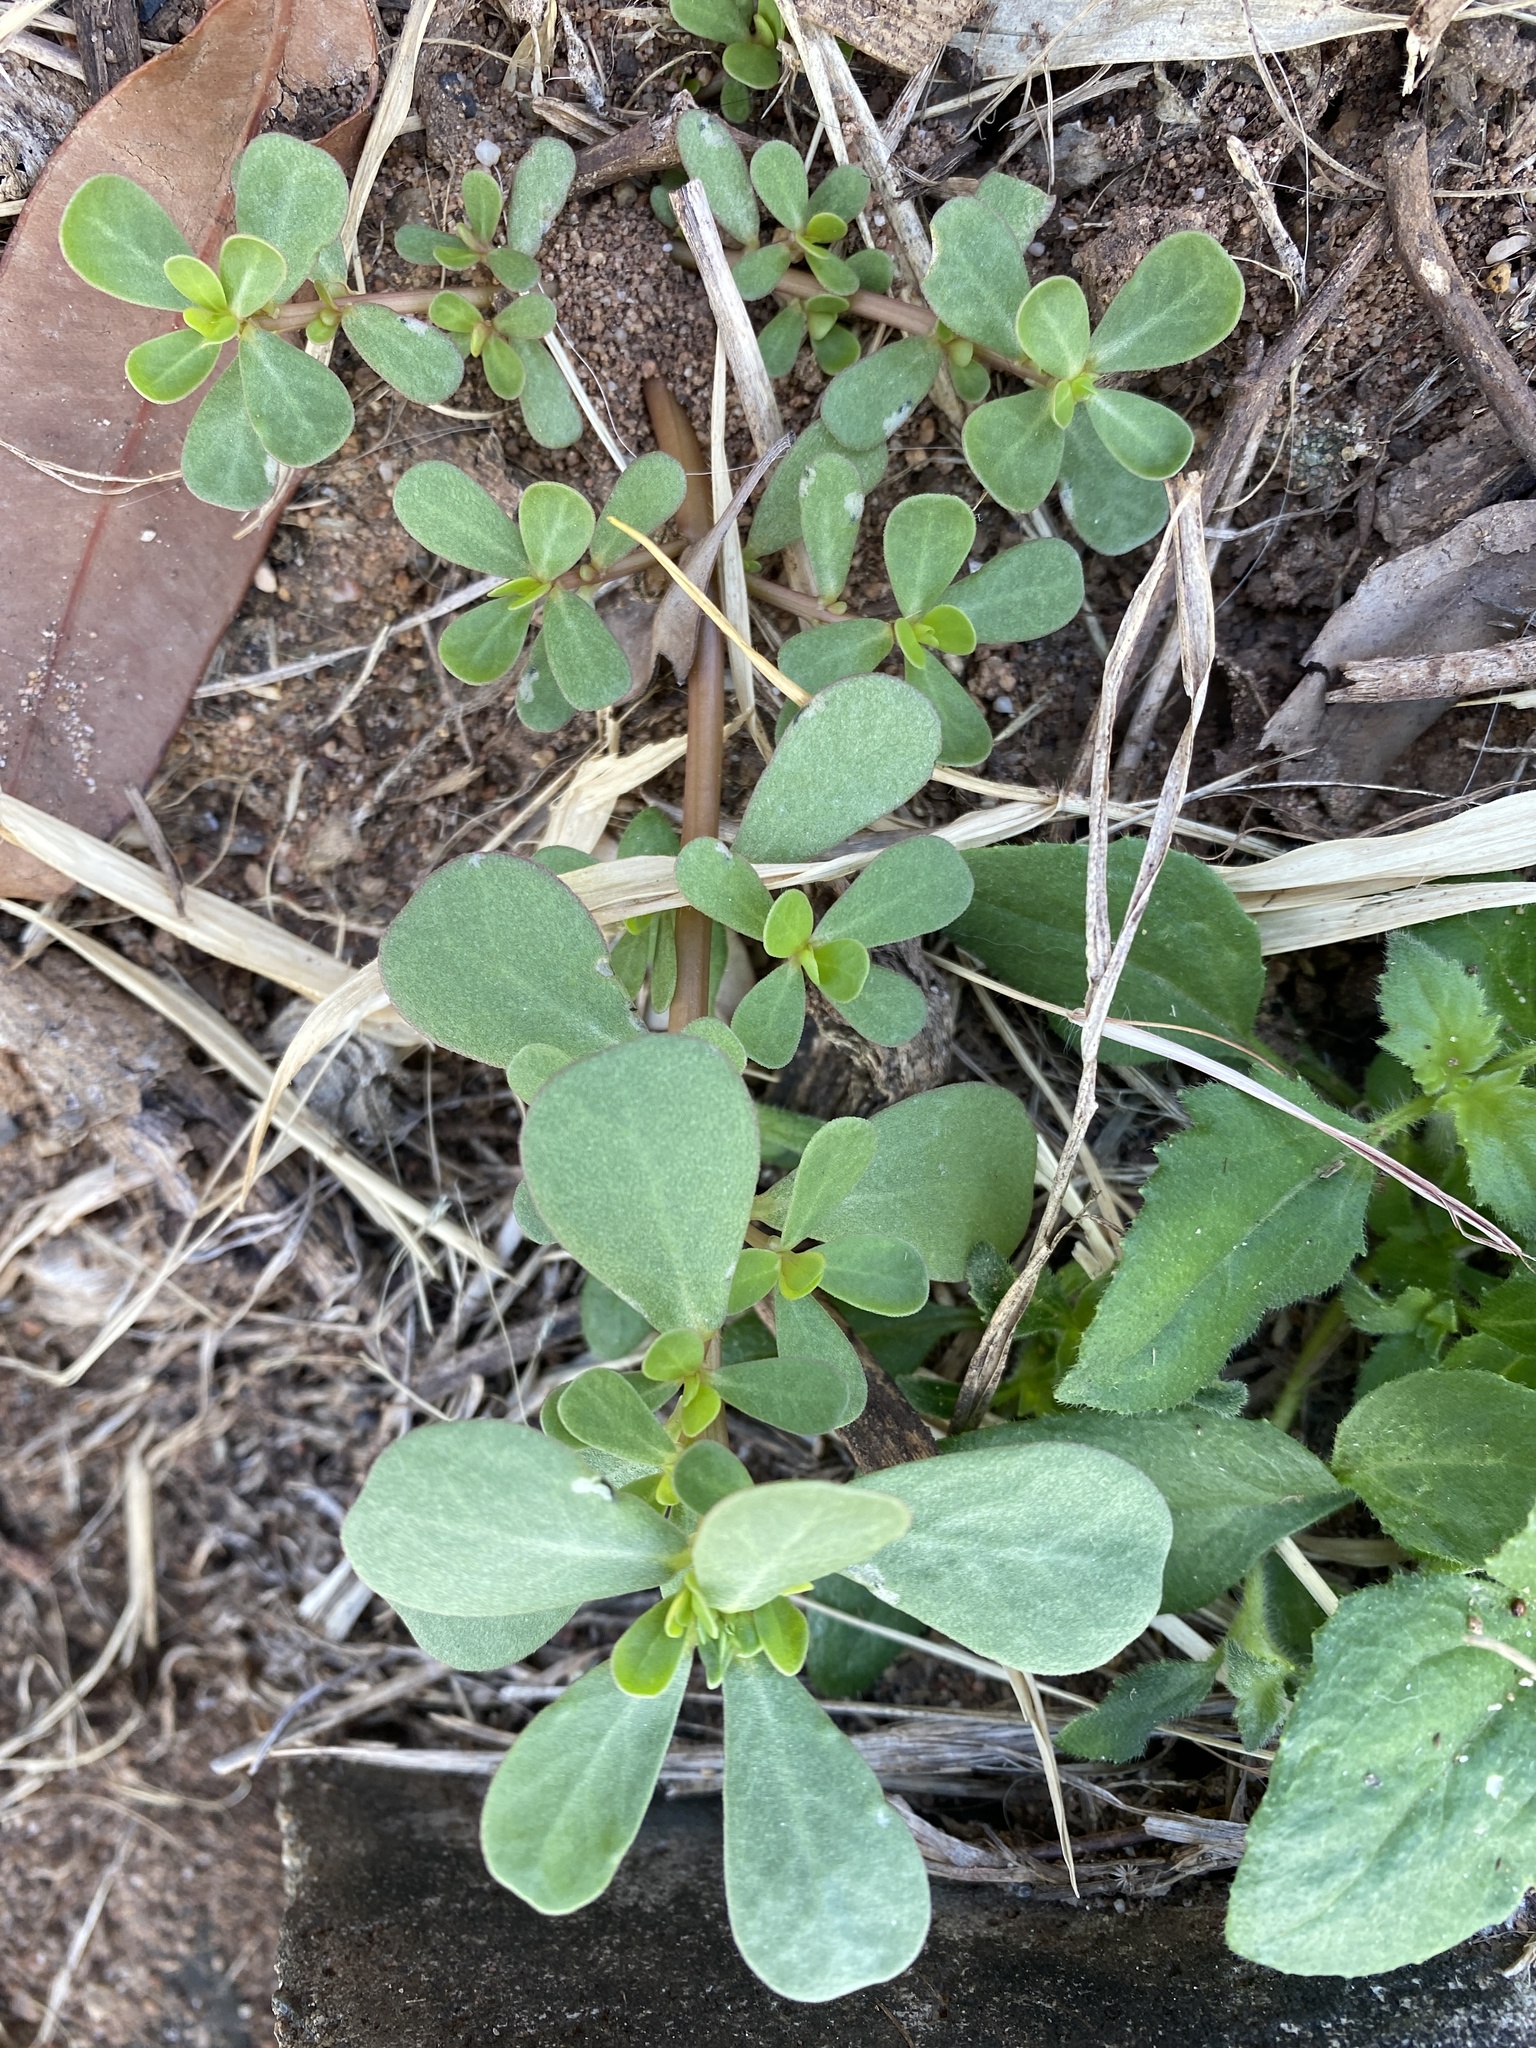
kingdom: Plantae
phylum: Tracheophyta
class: Magnoliopsida
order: Caryophyllales
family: Portulacaceae
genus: Portulaca
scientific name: Portulaca oleracea
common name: Common purslane
